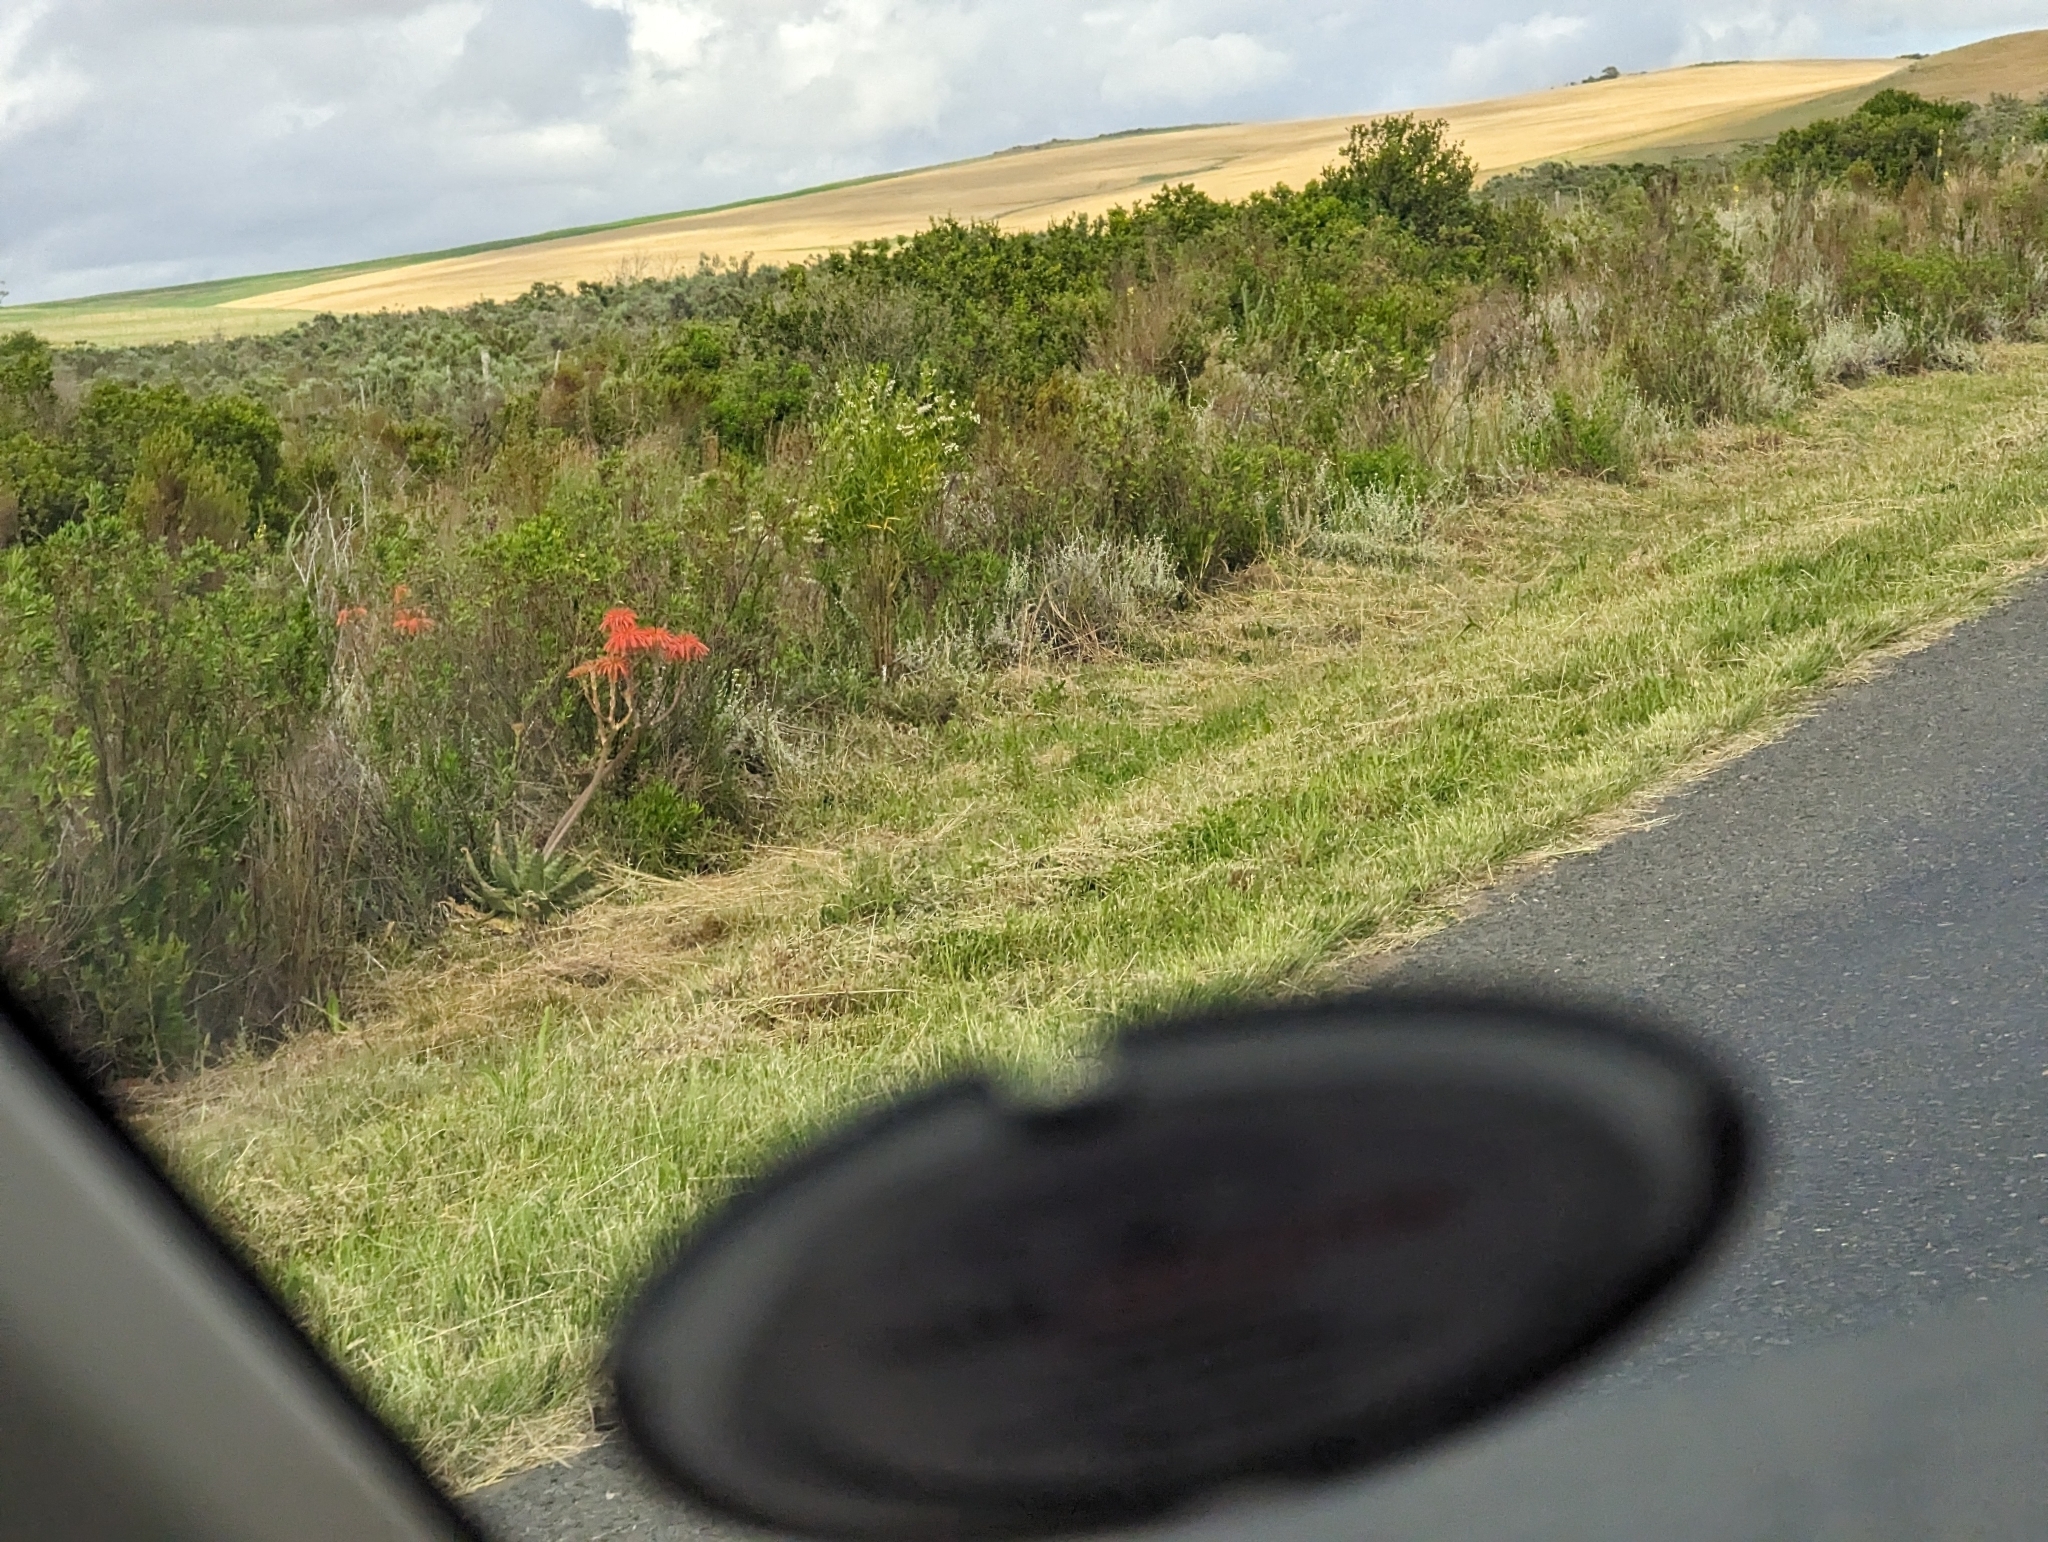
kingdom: Plantae
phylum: Tracheophyta
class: Liliopsida
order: Asparagales
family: Asphodelaceae
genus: Aloe
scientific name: Aloe maculata
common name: Broadleaf aloe
